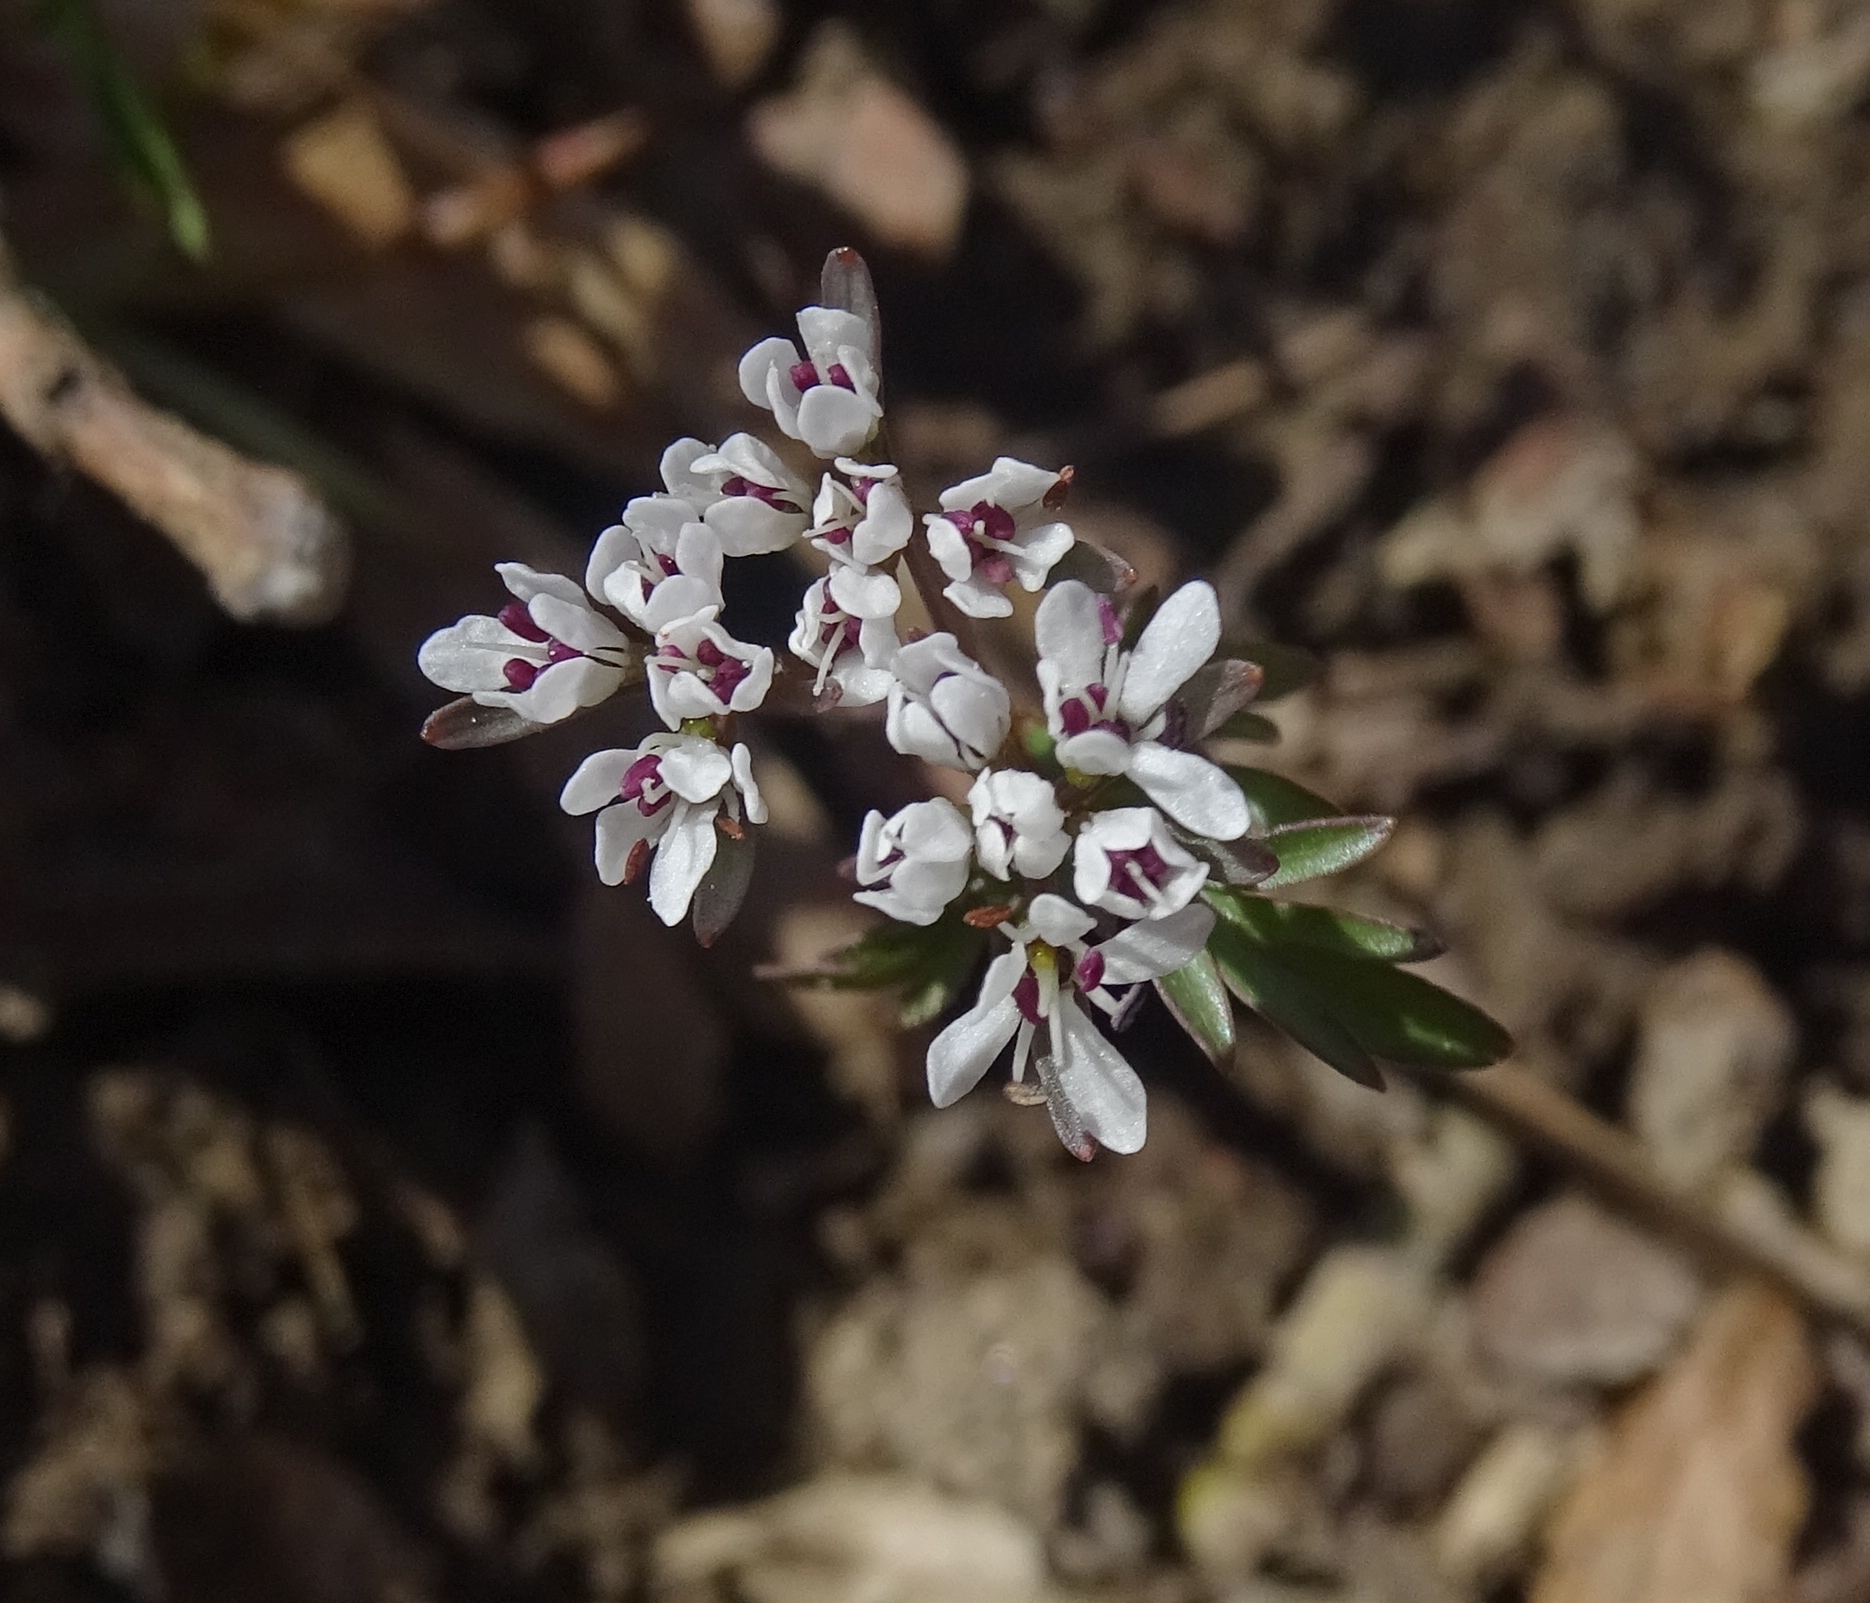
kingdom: Plantae
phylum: Tracheophyta
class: Magnoliopsida
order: Apiales
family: Apiaceae
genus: Erigenia
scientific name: Erigenia bulbosa
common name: Pepper-and-salt
